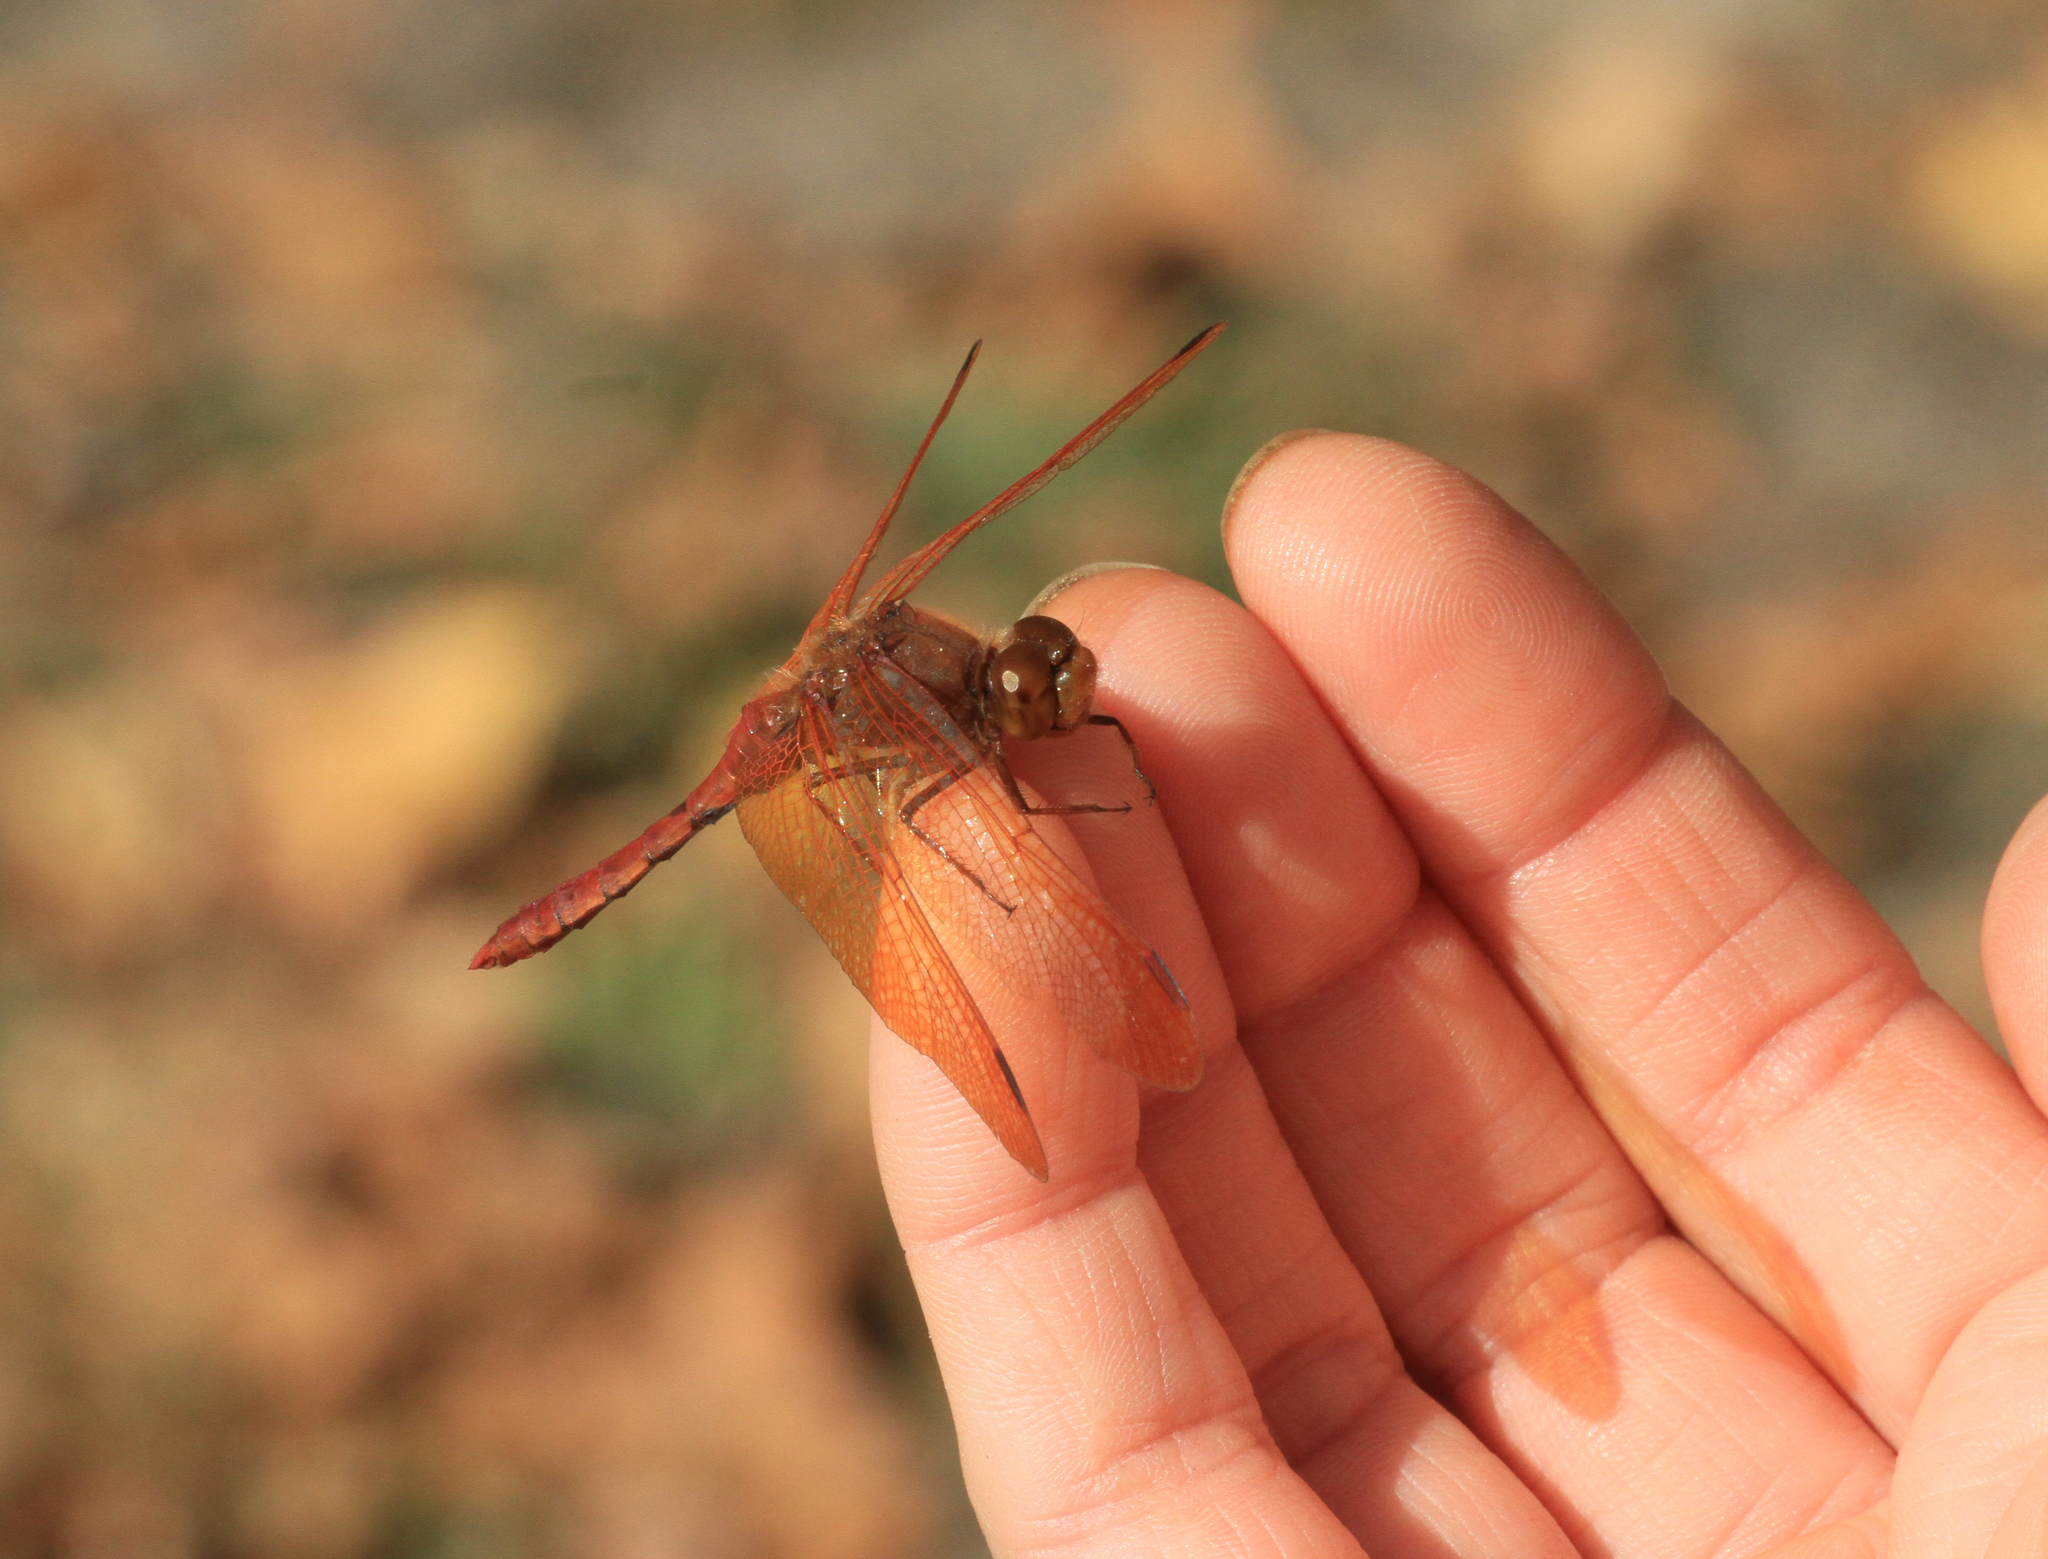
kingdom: Animalia
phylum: Arthropoda
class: Insecta
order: Odonata
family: Libellulidae
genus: Sympetrum
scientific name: Sympetrum croceolum
